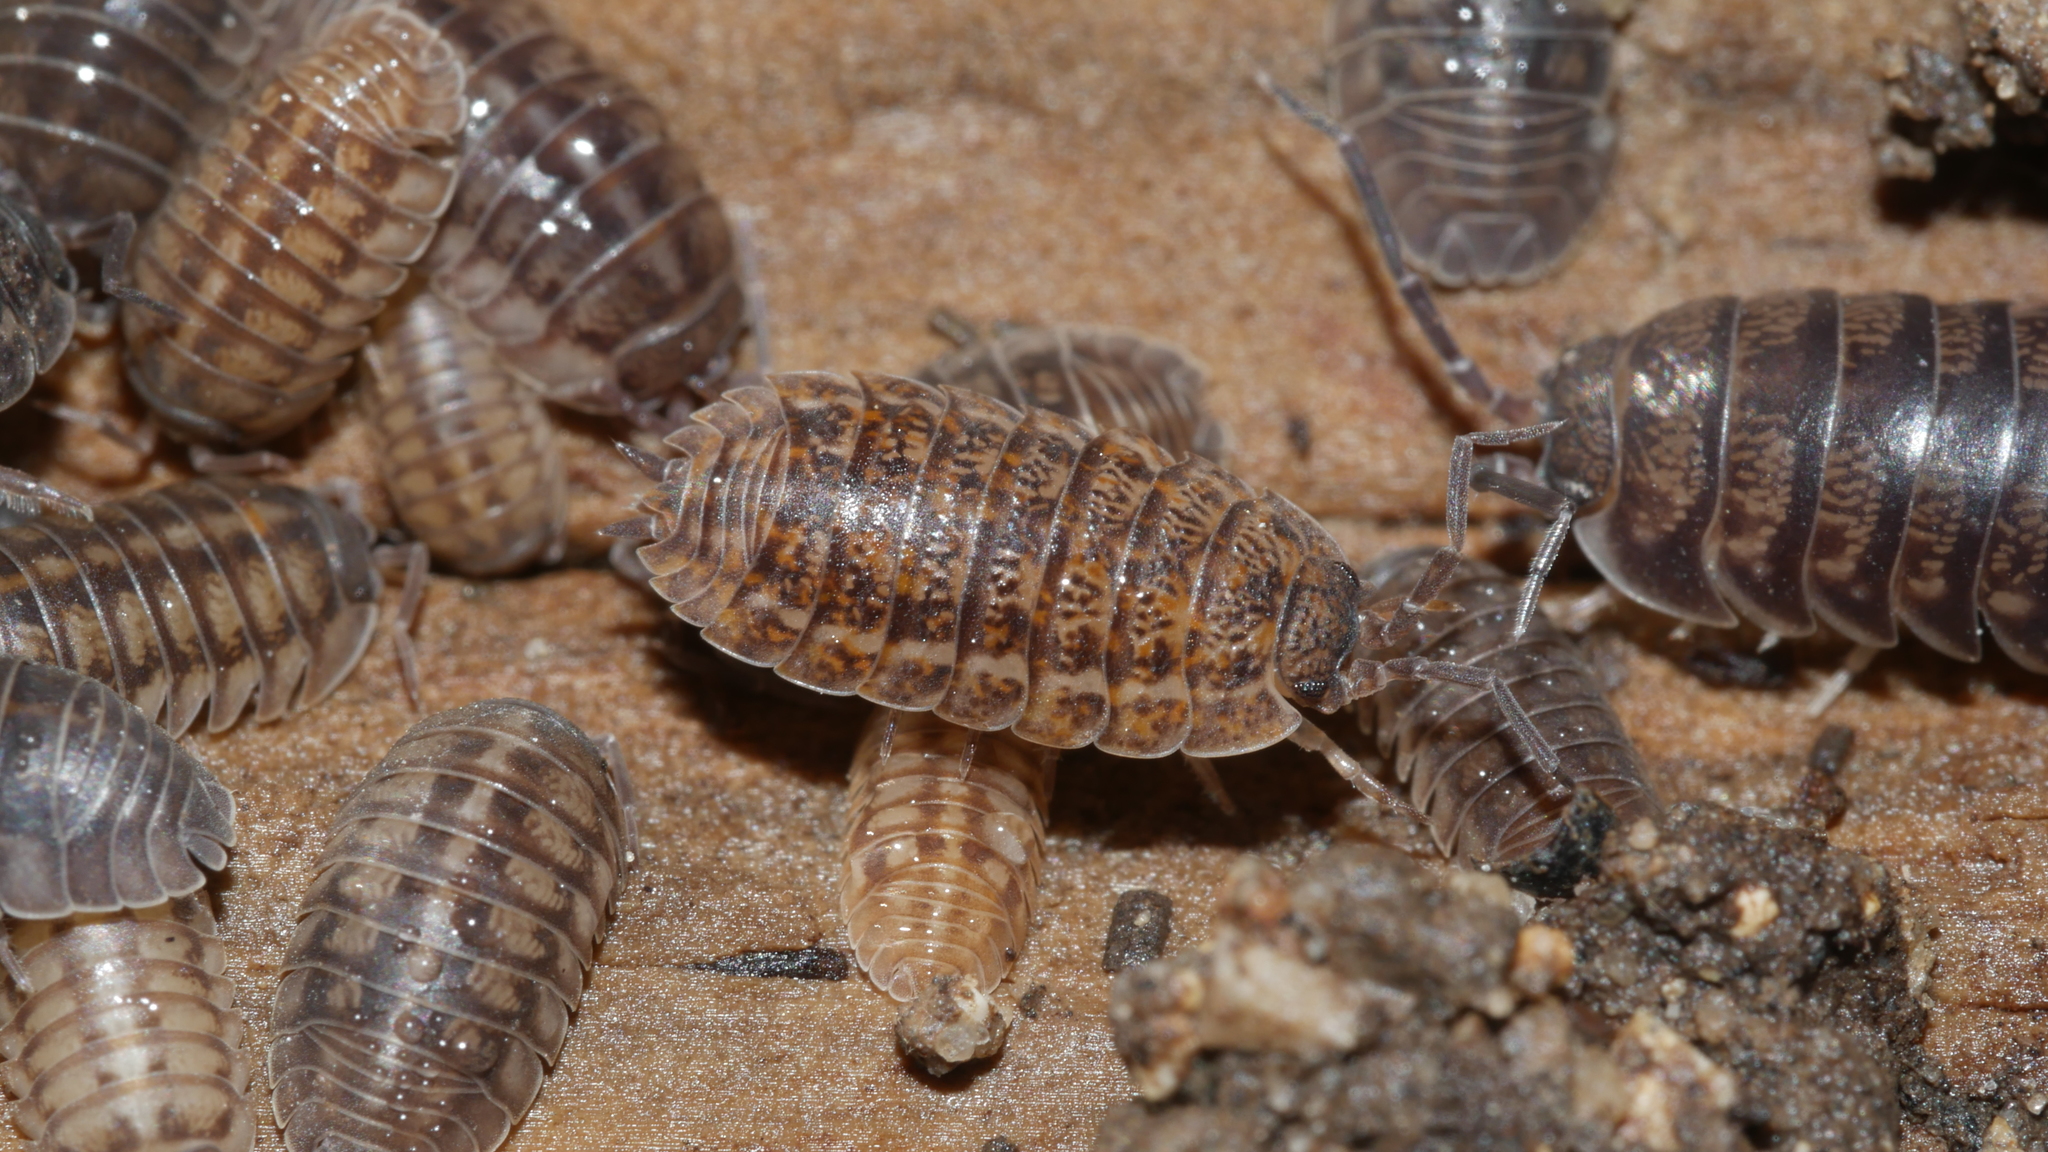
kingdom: Animalia
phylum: Arthropoda
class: Malacostraca
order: Isopoda
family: Trachelipodidae
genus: Trachelipus
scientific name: Trachelipus rathkii
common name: Isopod
